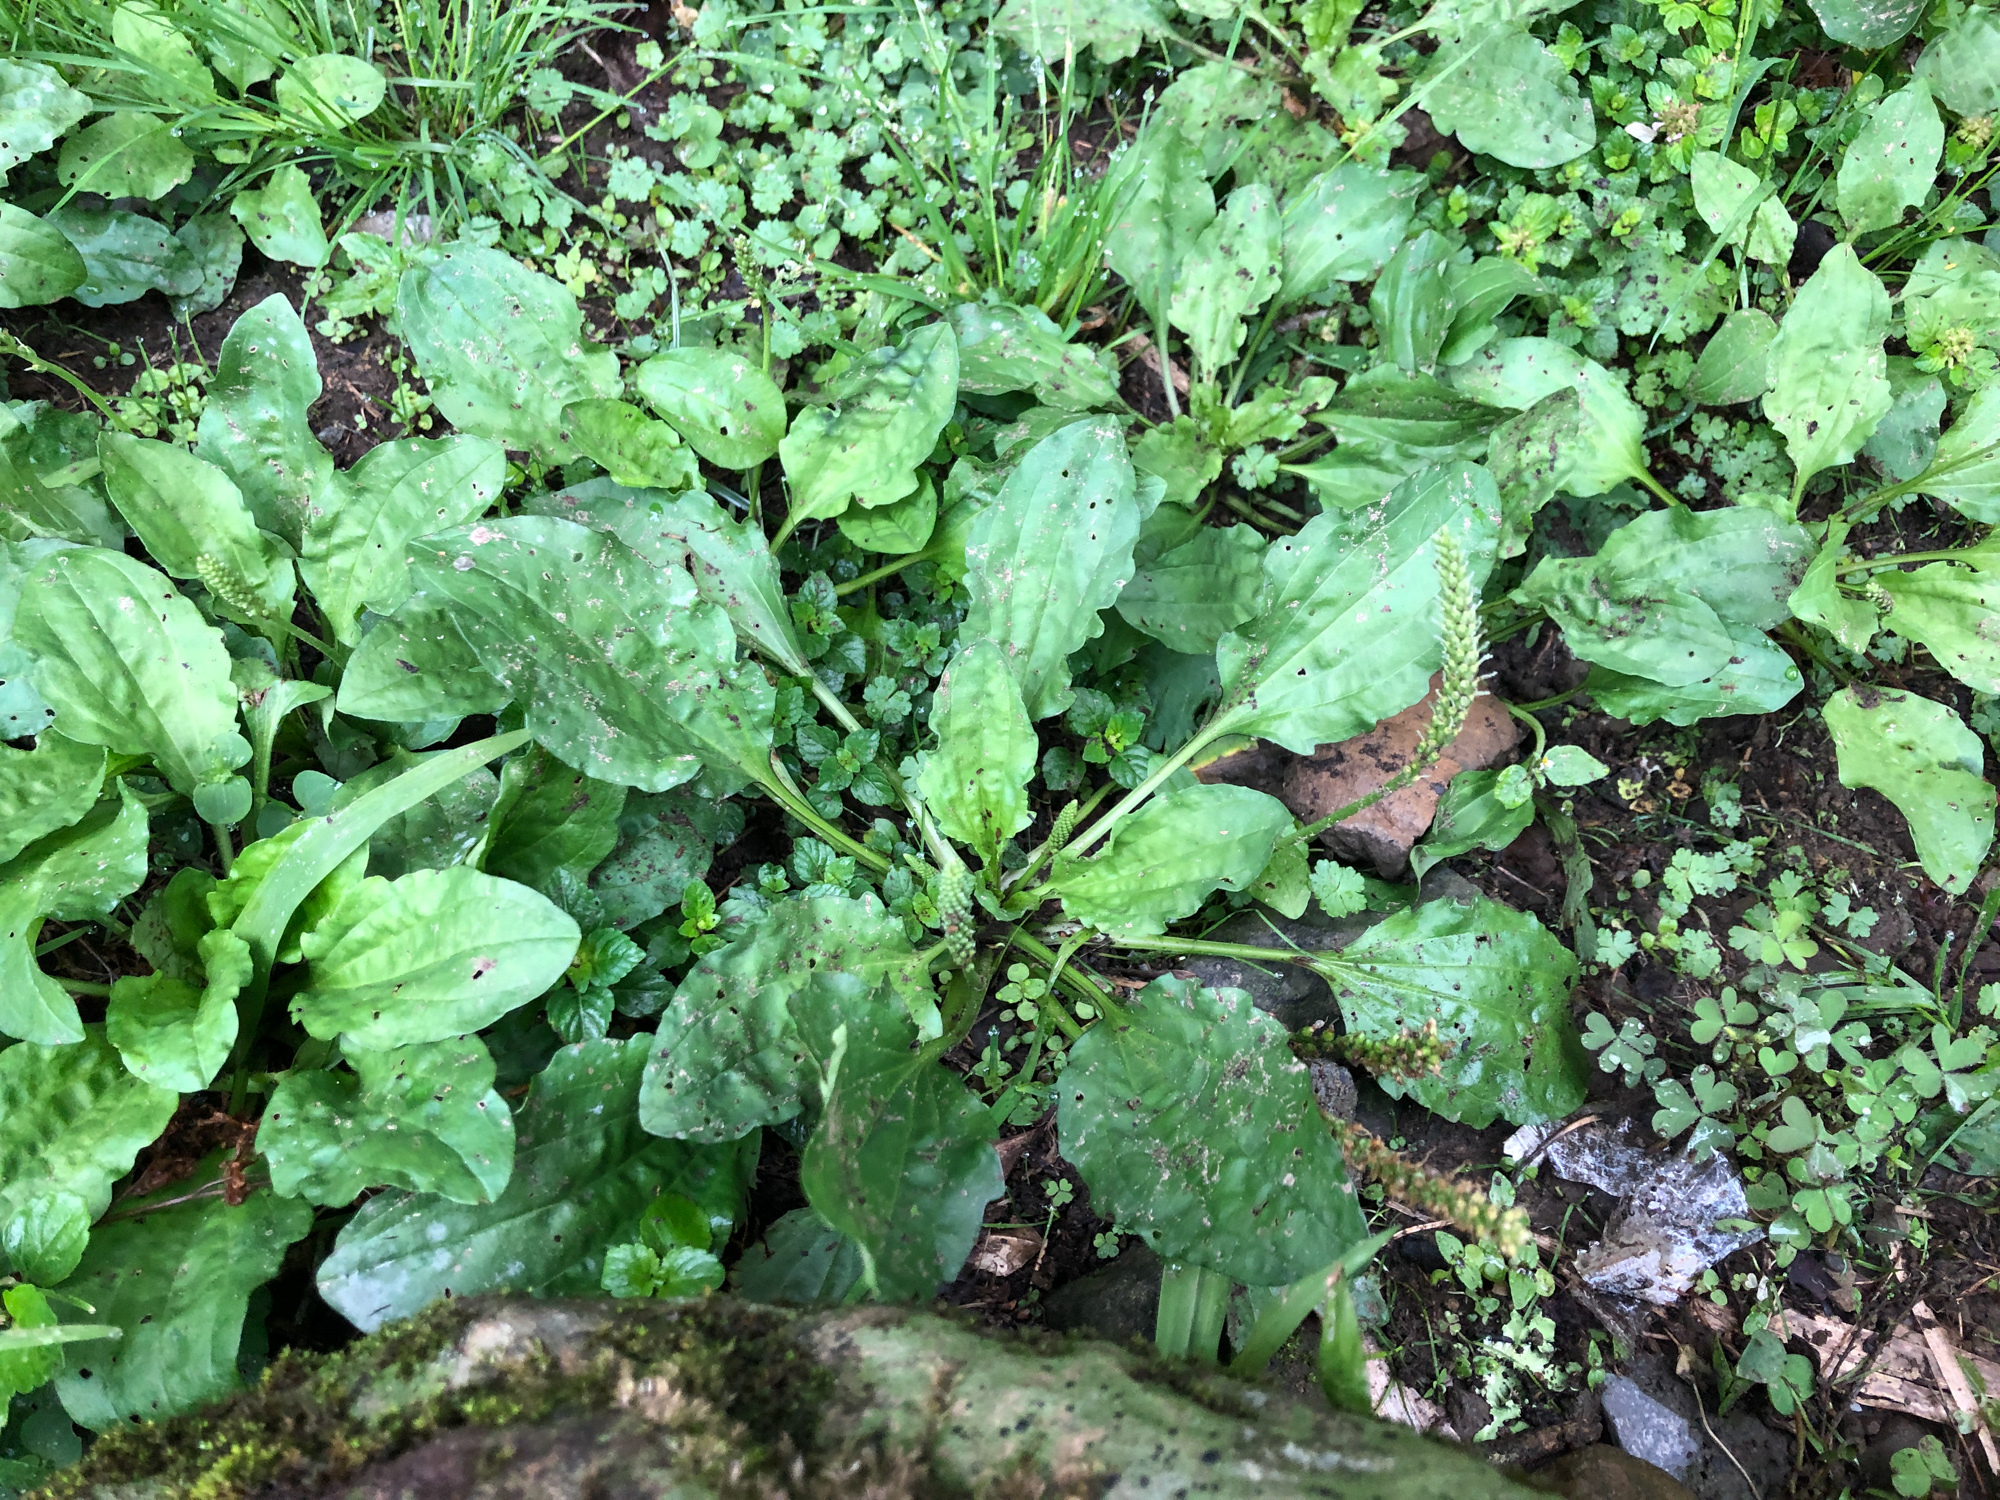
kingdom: Plantae
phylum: Tracheophyta
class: Magnoliopsida
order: Lamiales
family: Plantaginaceae
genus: Plantago
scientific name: Plantago asiatica
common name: Psyllium
